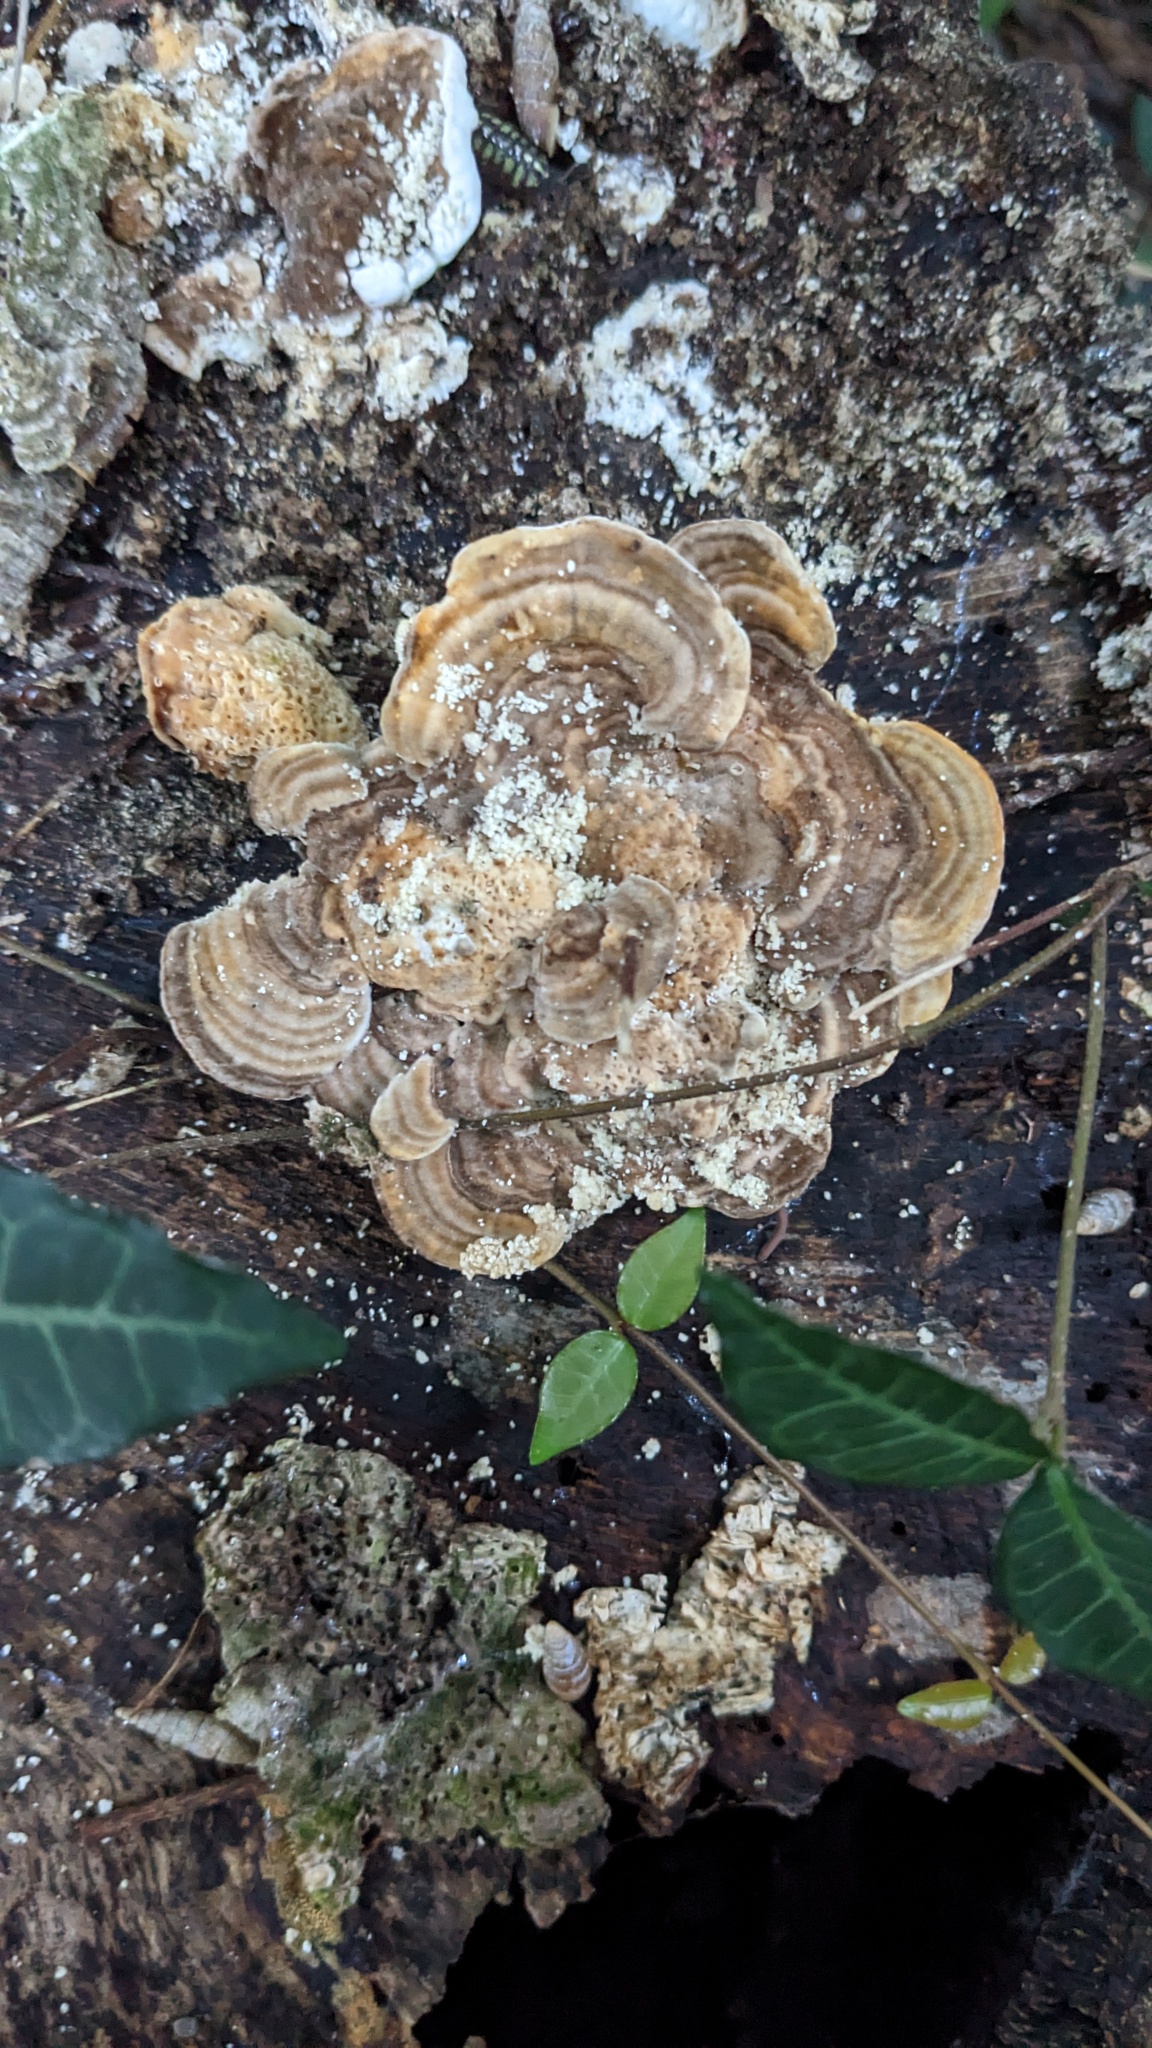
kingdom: Fungi
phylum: Basidiomycota
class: Agaricomycetes
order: Polyporales
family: Polyporaceae
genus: Lenzites
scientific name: Lenzites betulinus
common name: Birch mazegill
